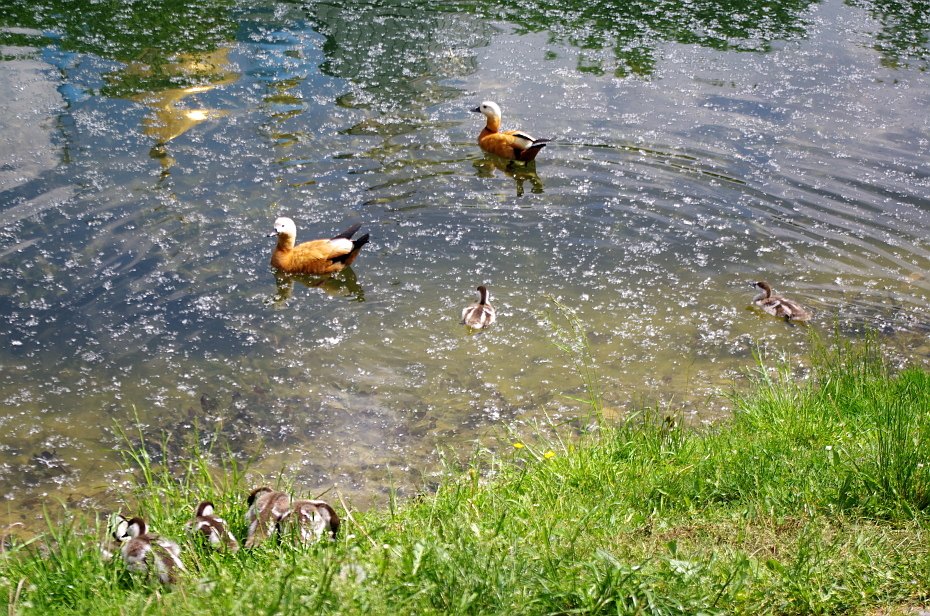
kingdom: Animalia
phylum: Chordata
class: Aves
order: Anseriformes
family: Anatidae
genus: Tadorna
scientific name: Tadorna ferruginea
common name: Ruddy shelduck
